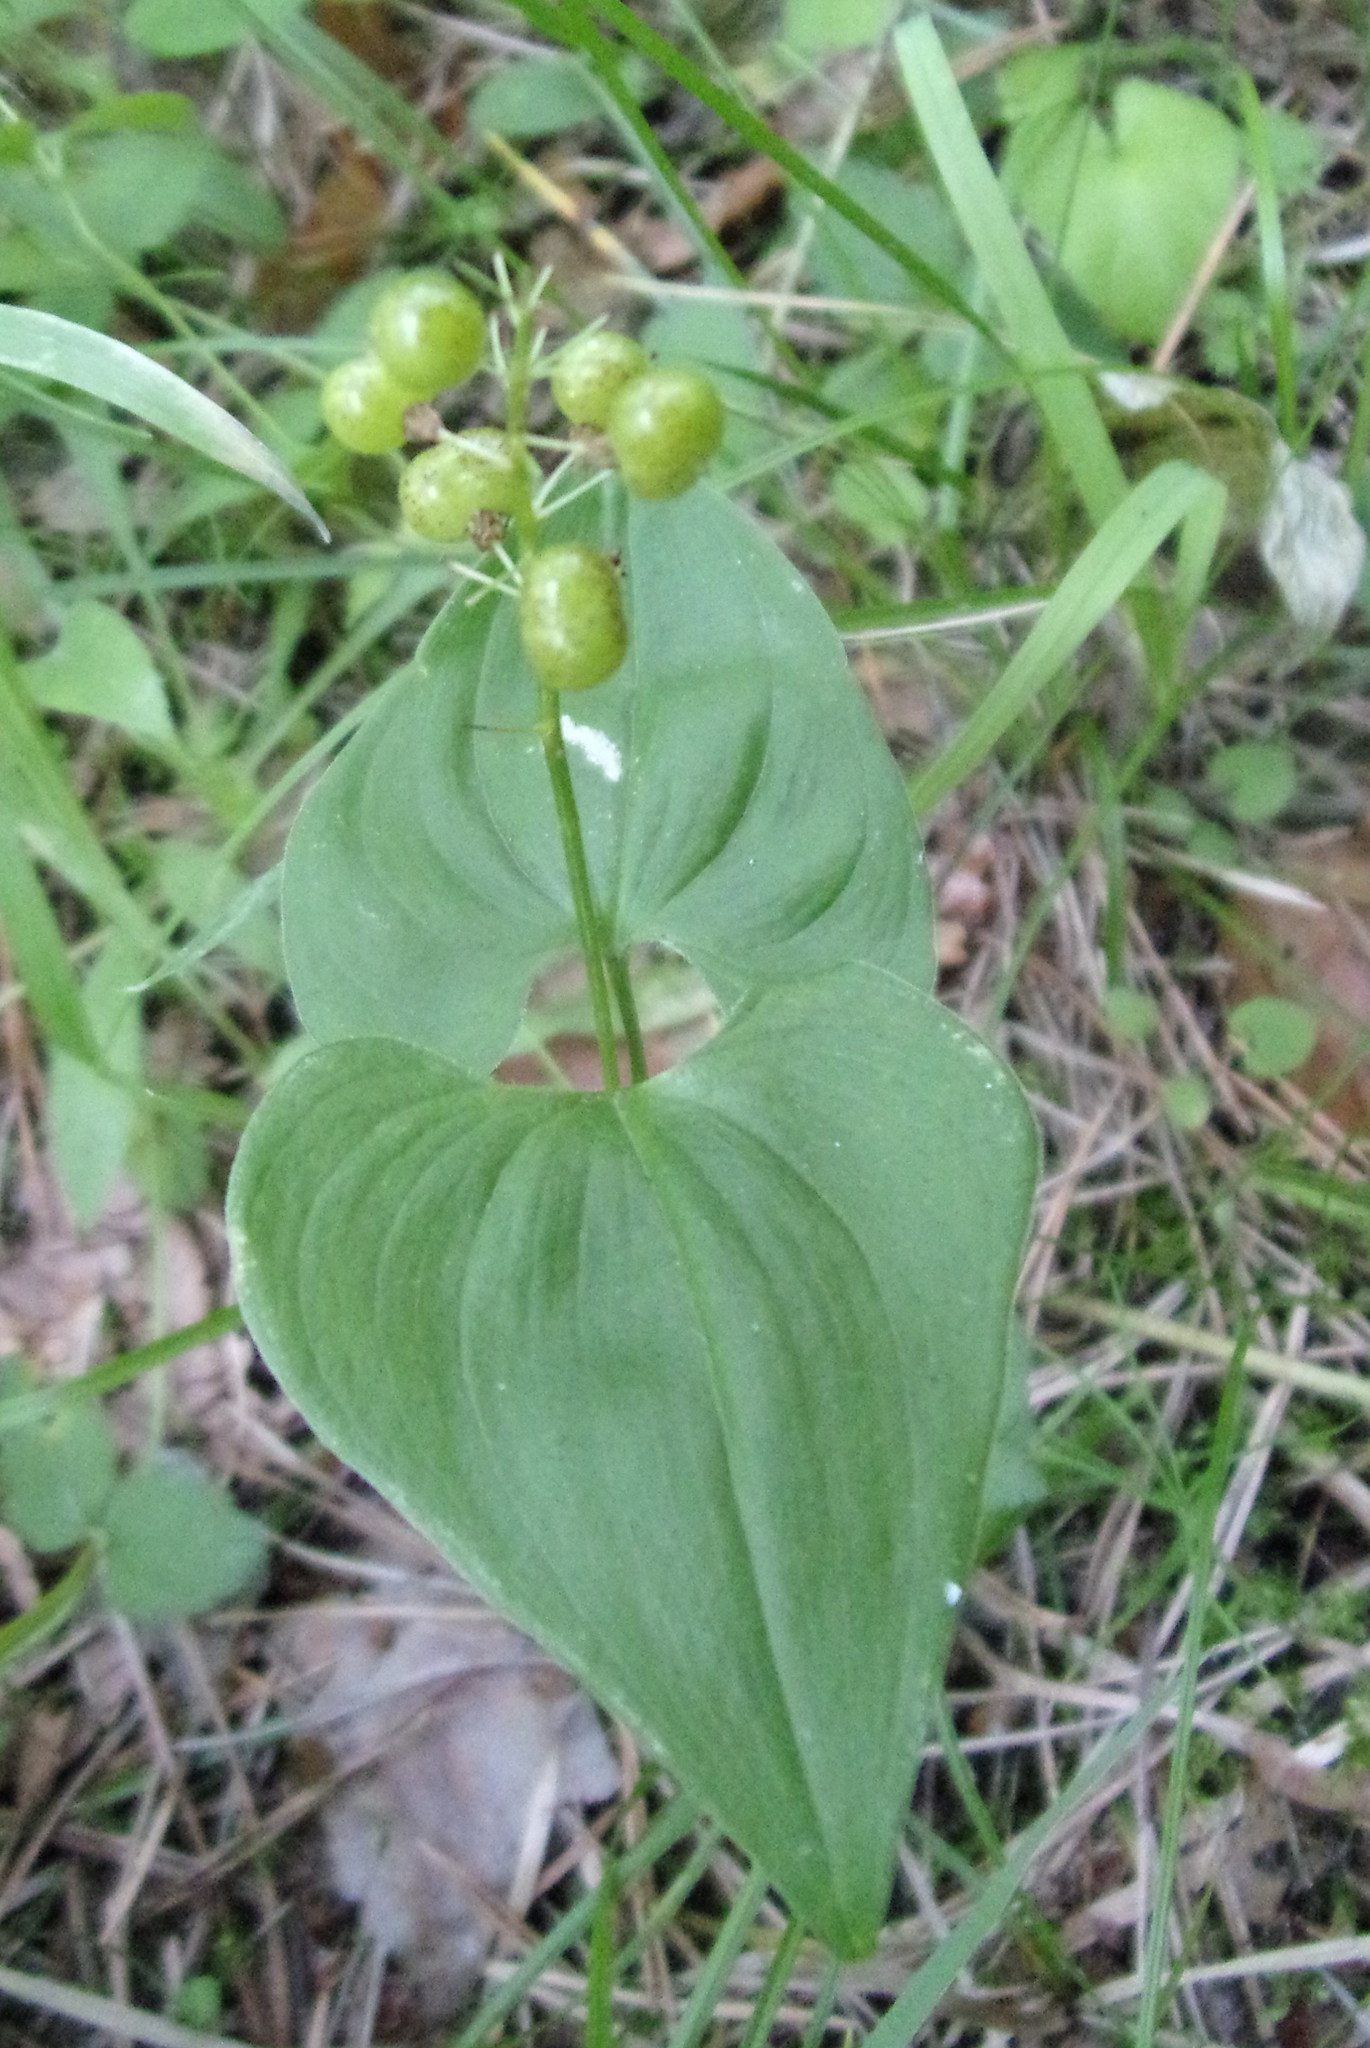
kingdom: Plantae
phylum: Tracheophyta
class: Liliopsida
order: Asparagales
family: Asparagaceae
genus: Maianthemum
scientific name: Maianthemum bifolium
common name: May lily
